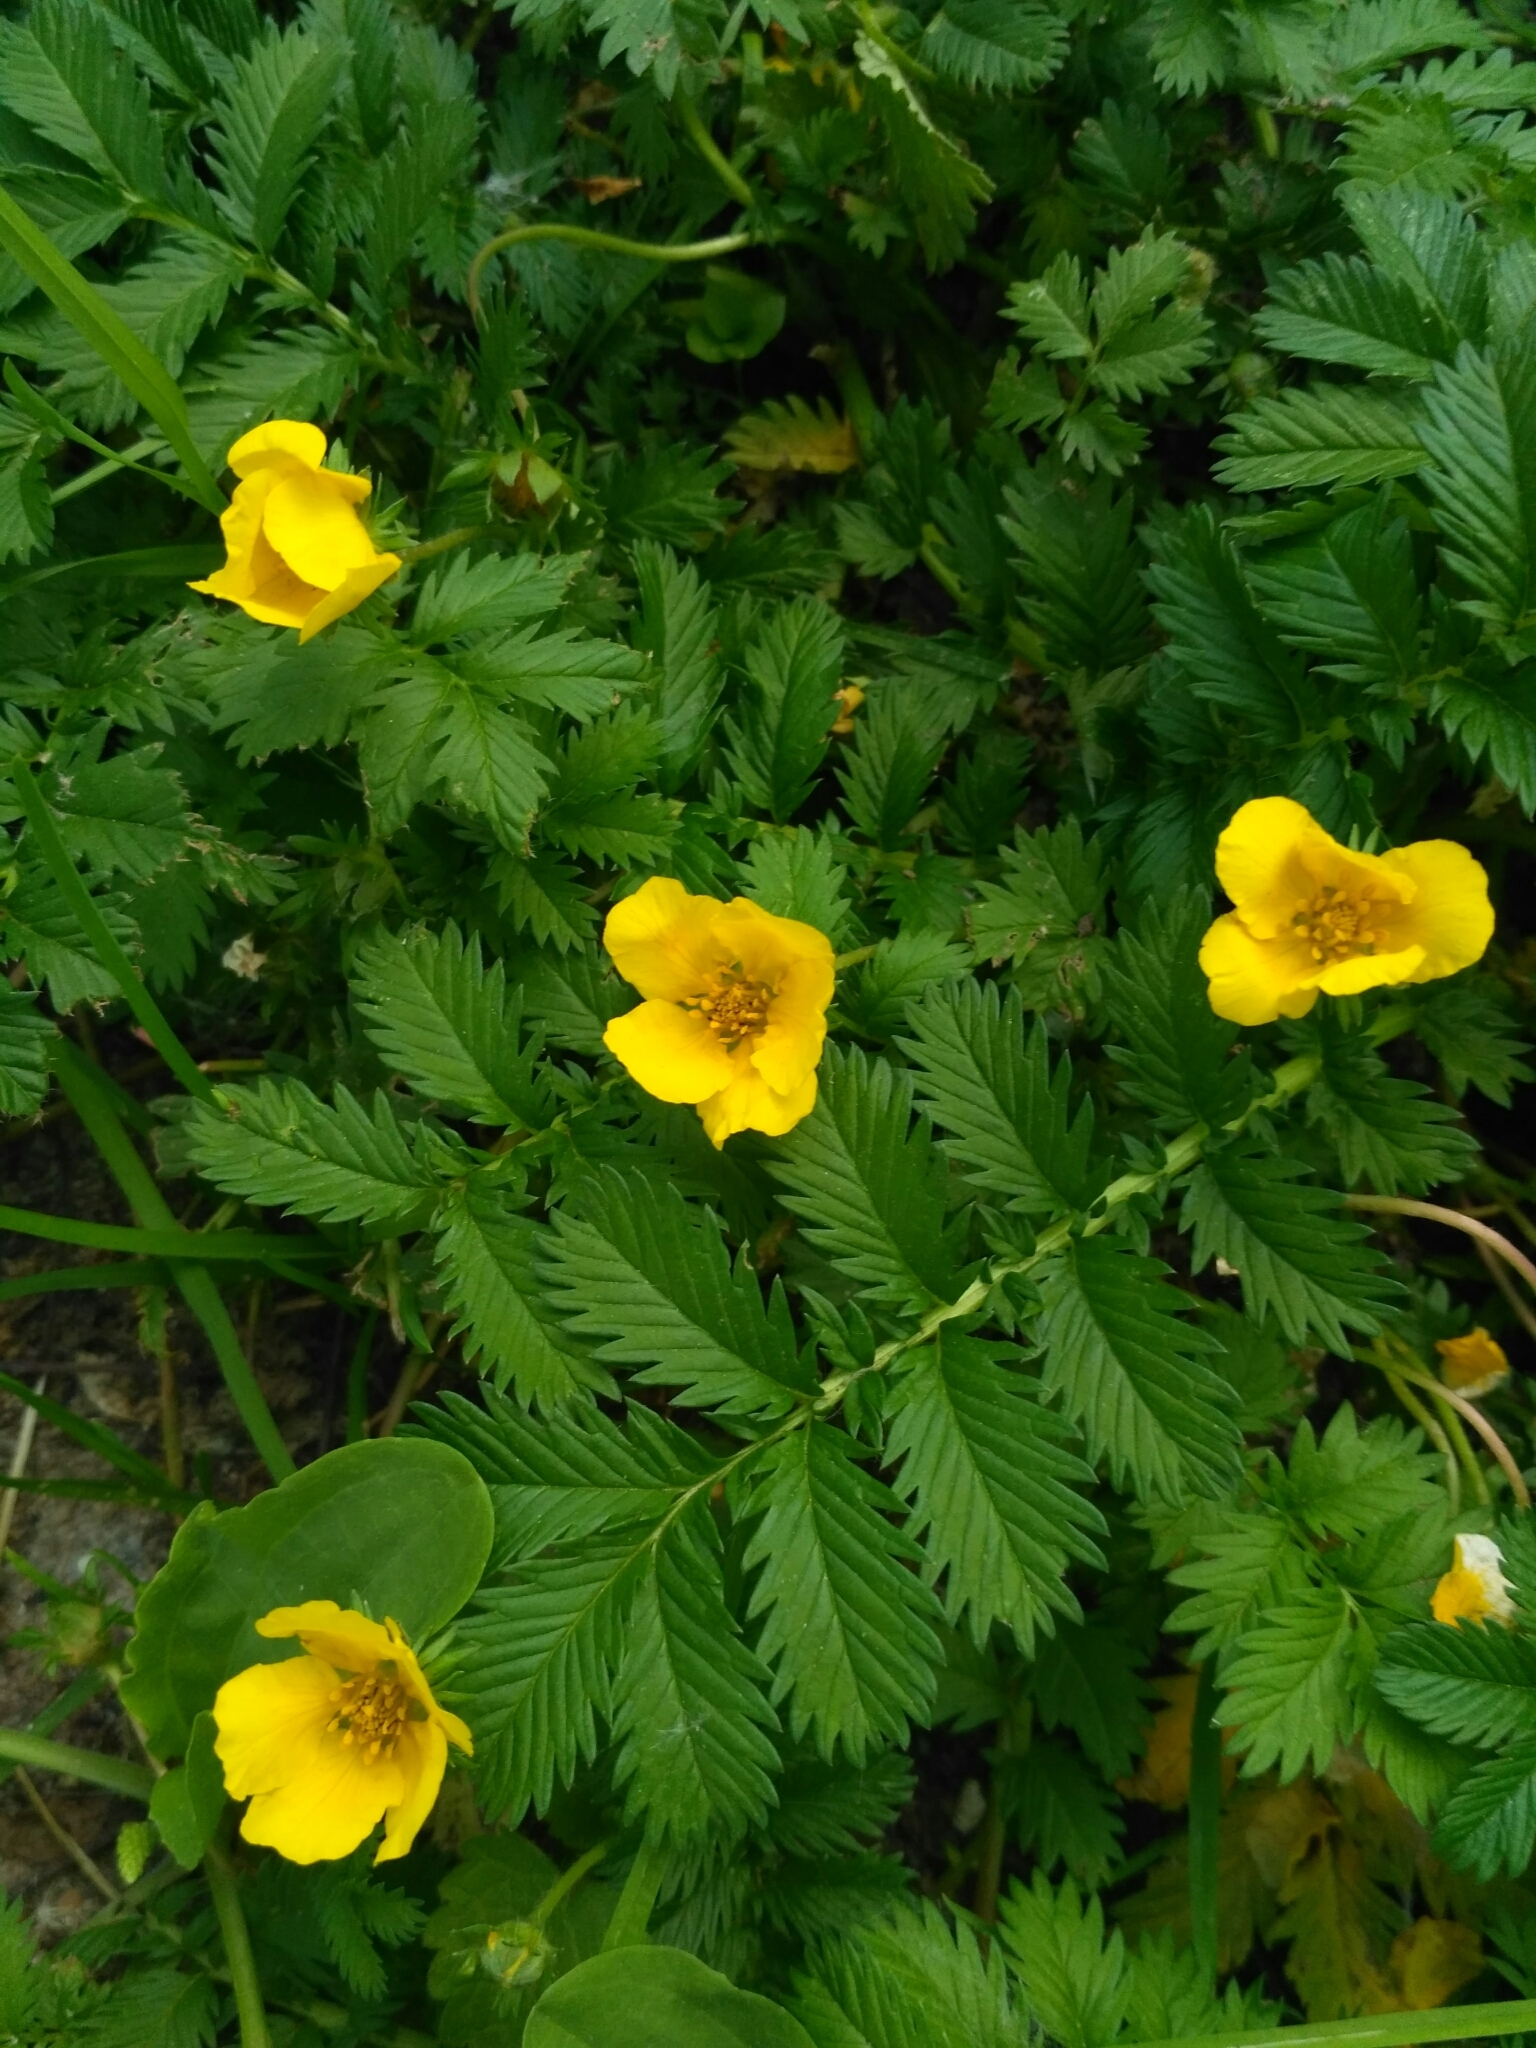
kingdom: Plantae
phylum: Tracheophyta
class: Magnoliopsida
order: Rosales
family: Rosaceae
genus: Argentina
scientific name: Argentina anserina
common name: Common silverweed
